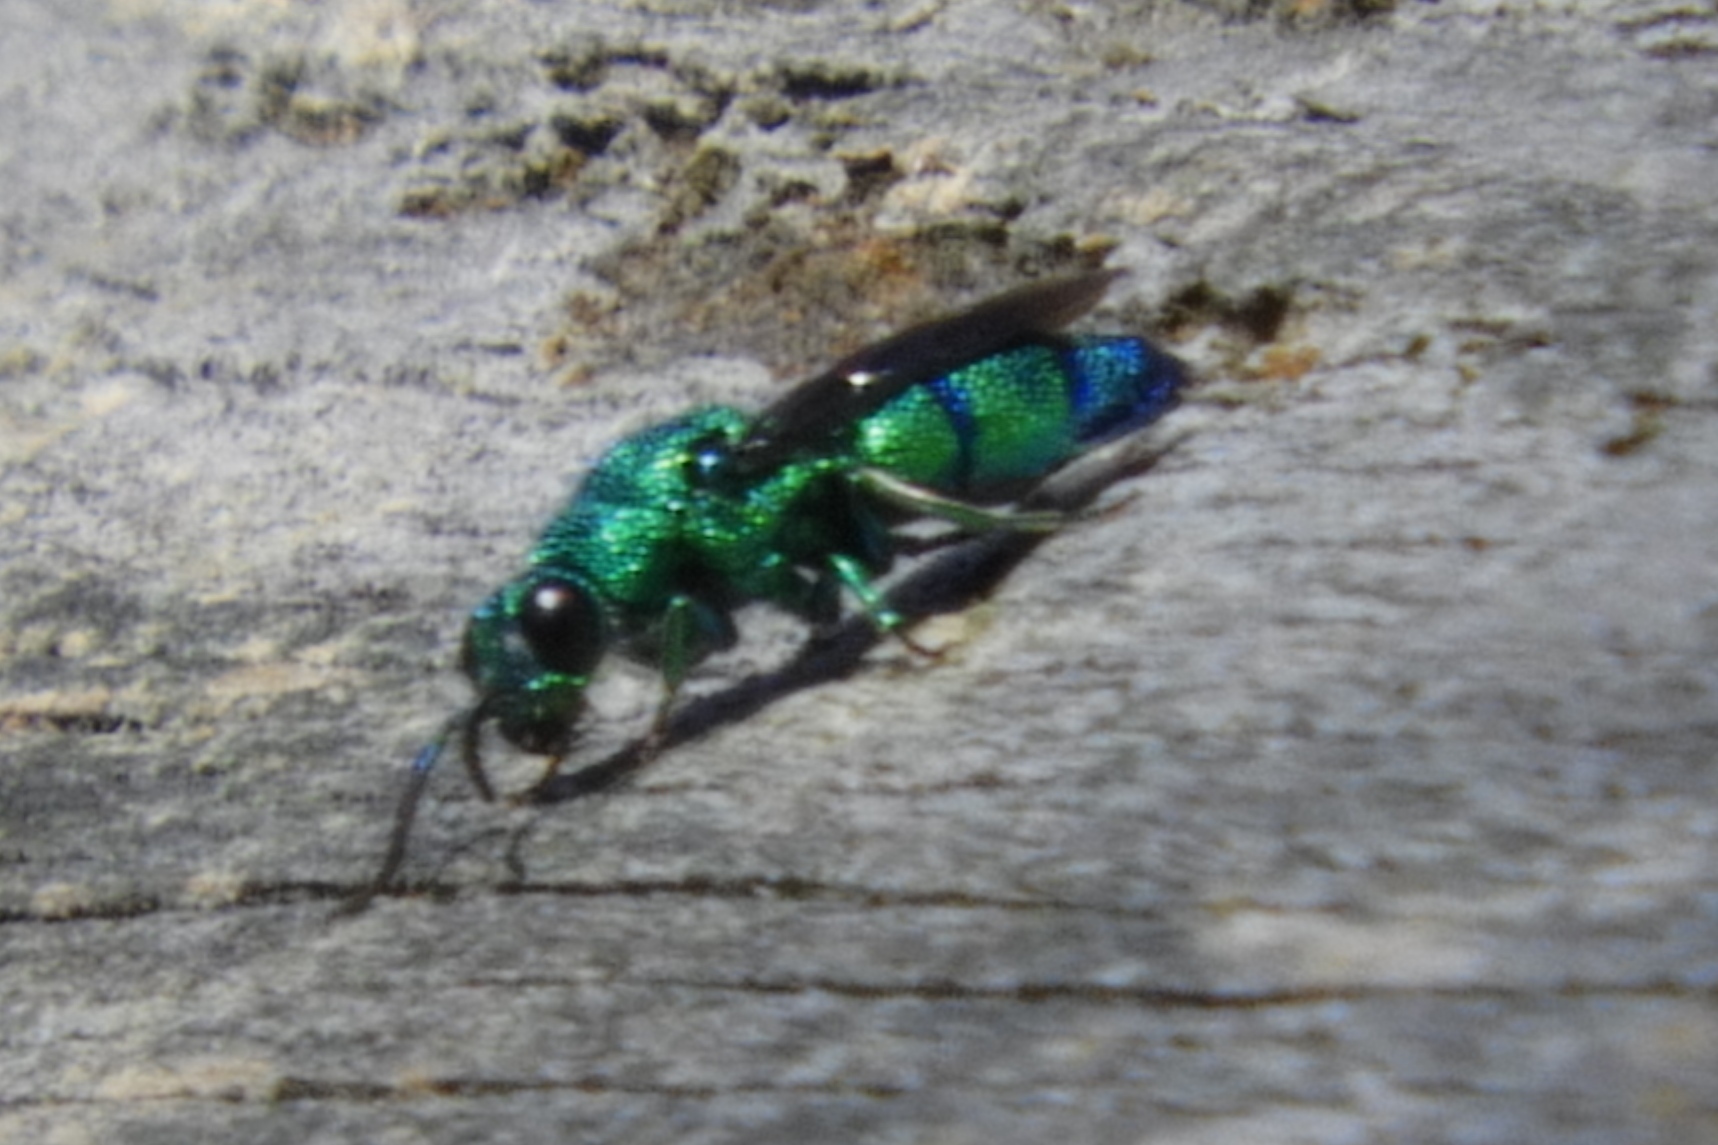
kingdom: Animalia
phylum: Arthropoda
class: Insecta
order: Hymenoptera
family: Chrysididae
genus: Chrysis
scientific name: Chrysis smaragdula
